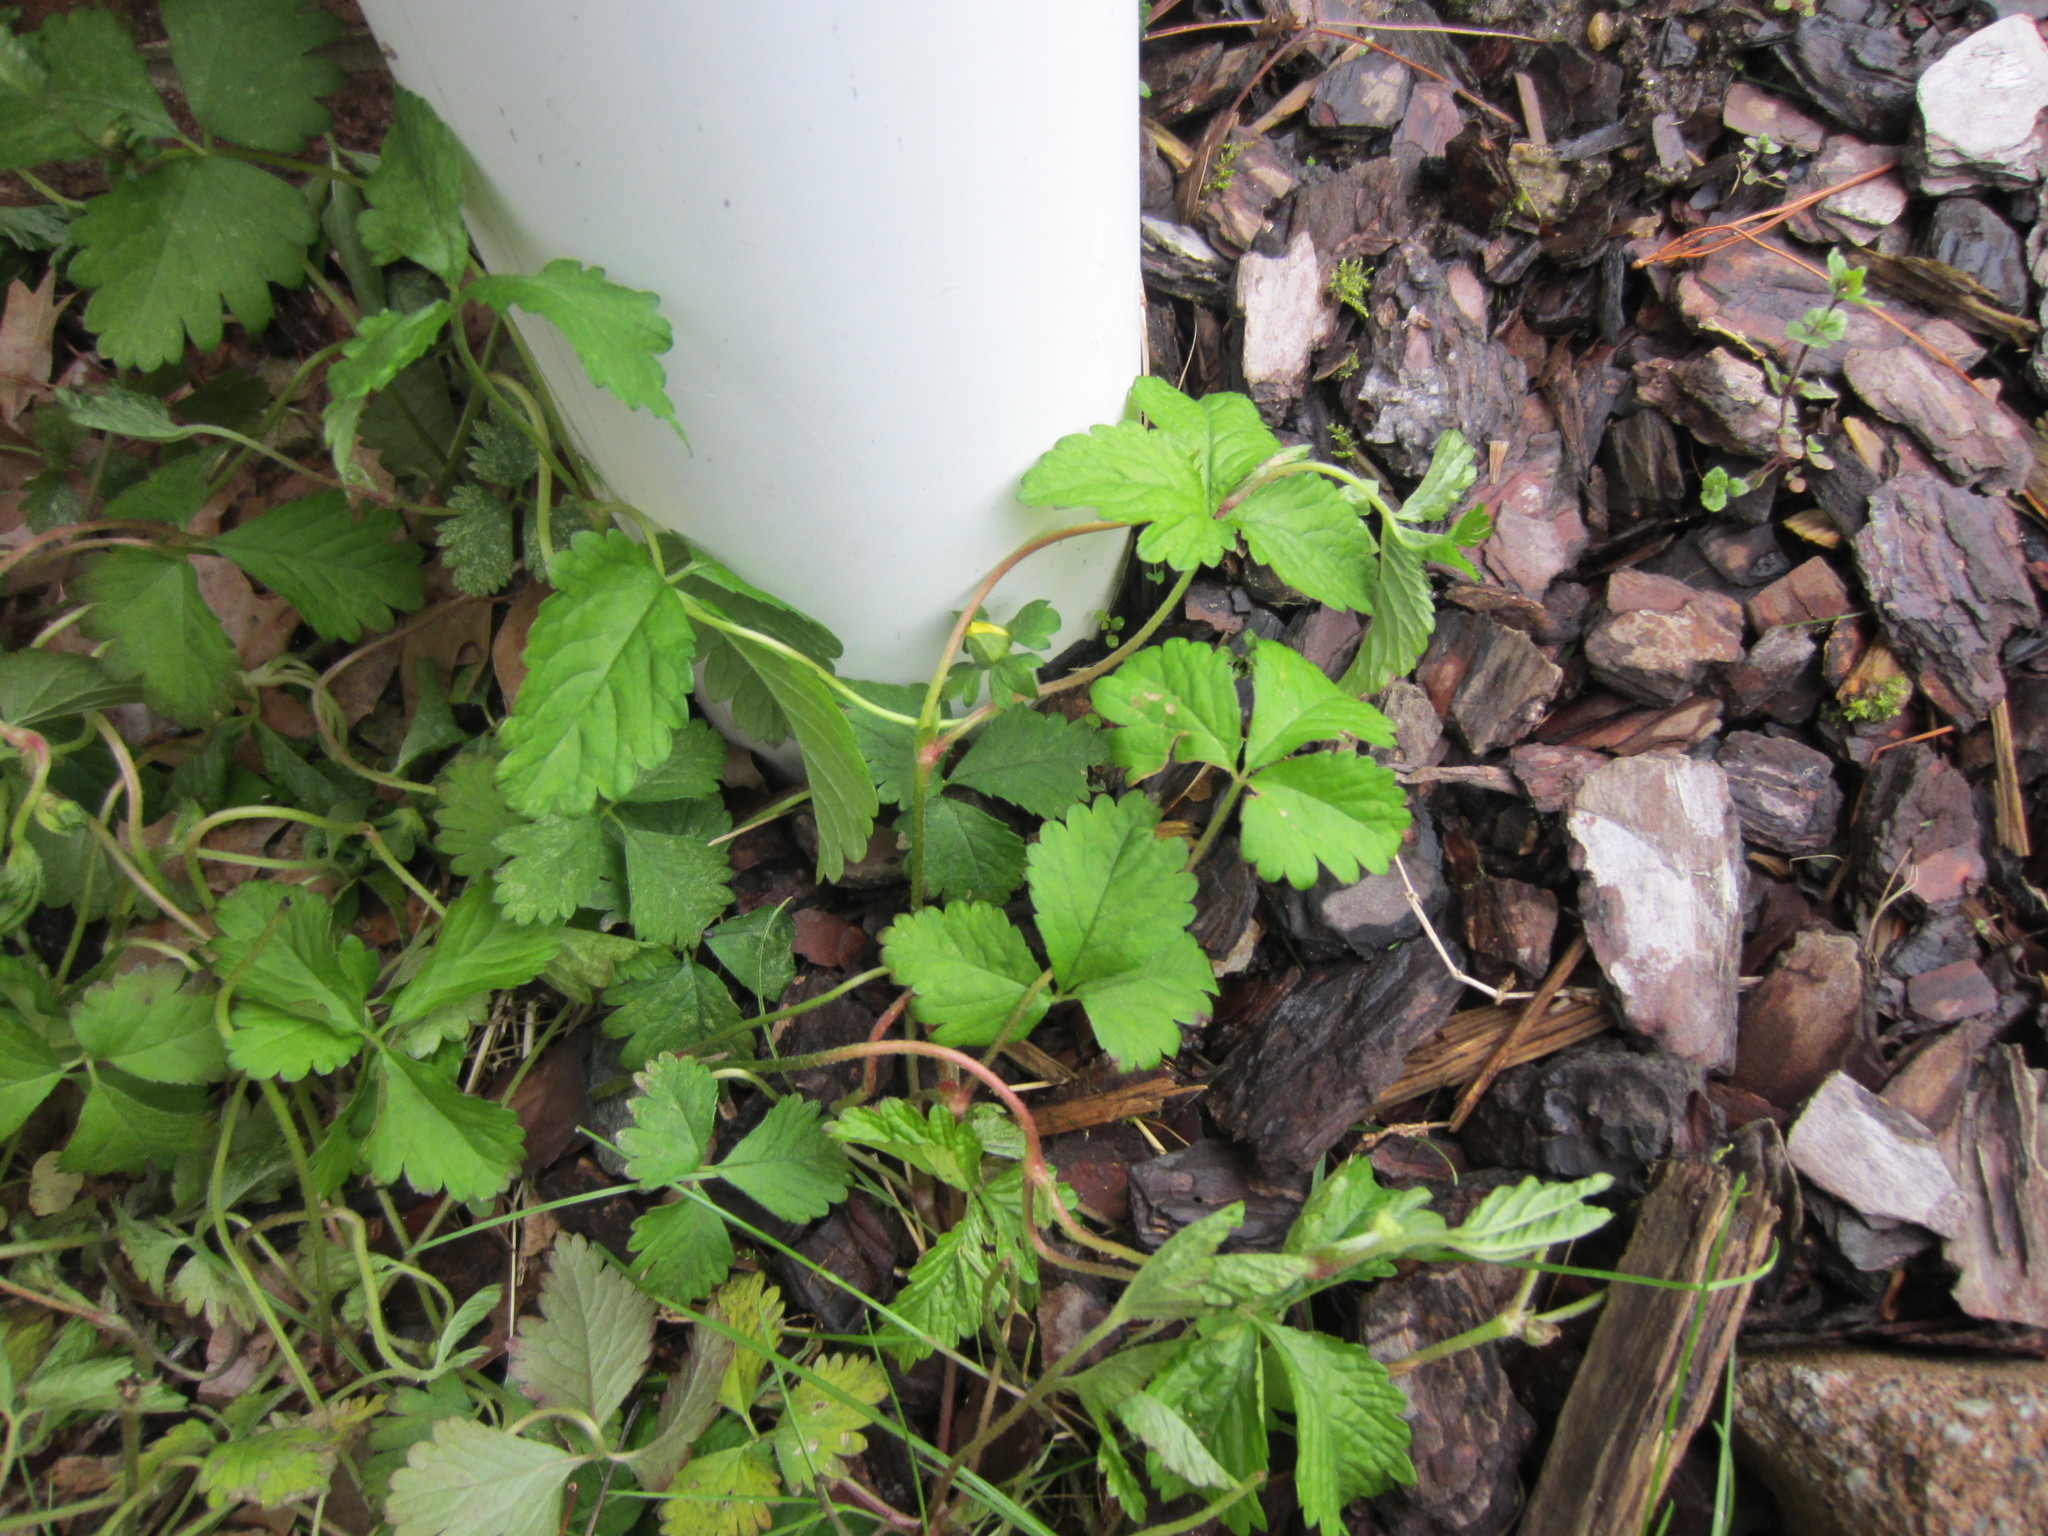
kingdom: Plantae
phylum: Tracheophyta
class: Magnoliopsida
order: Rosales
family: Rosaceae
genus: Potentilla
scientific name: Potentilla indica
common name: Yellow-flowered strawberry
